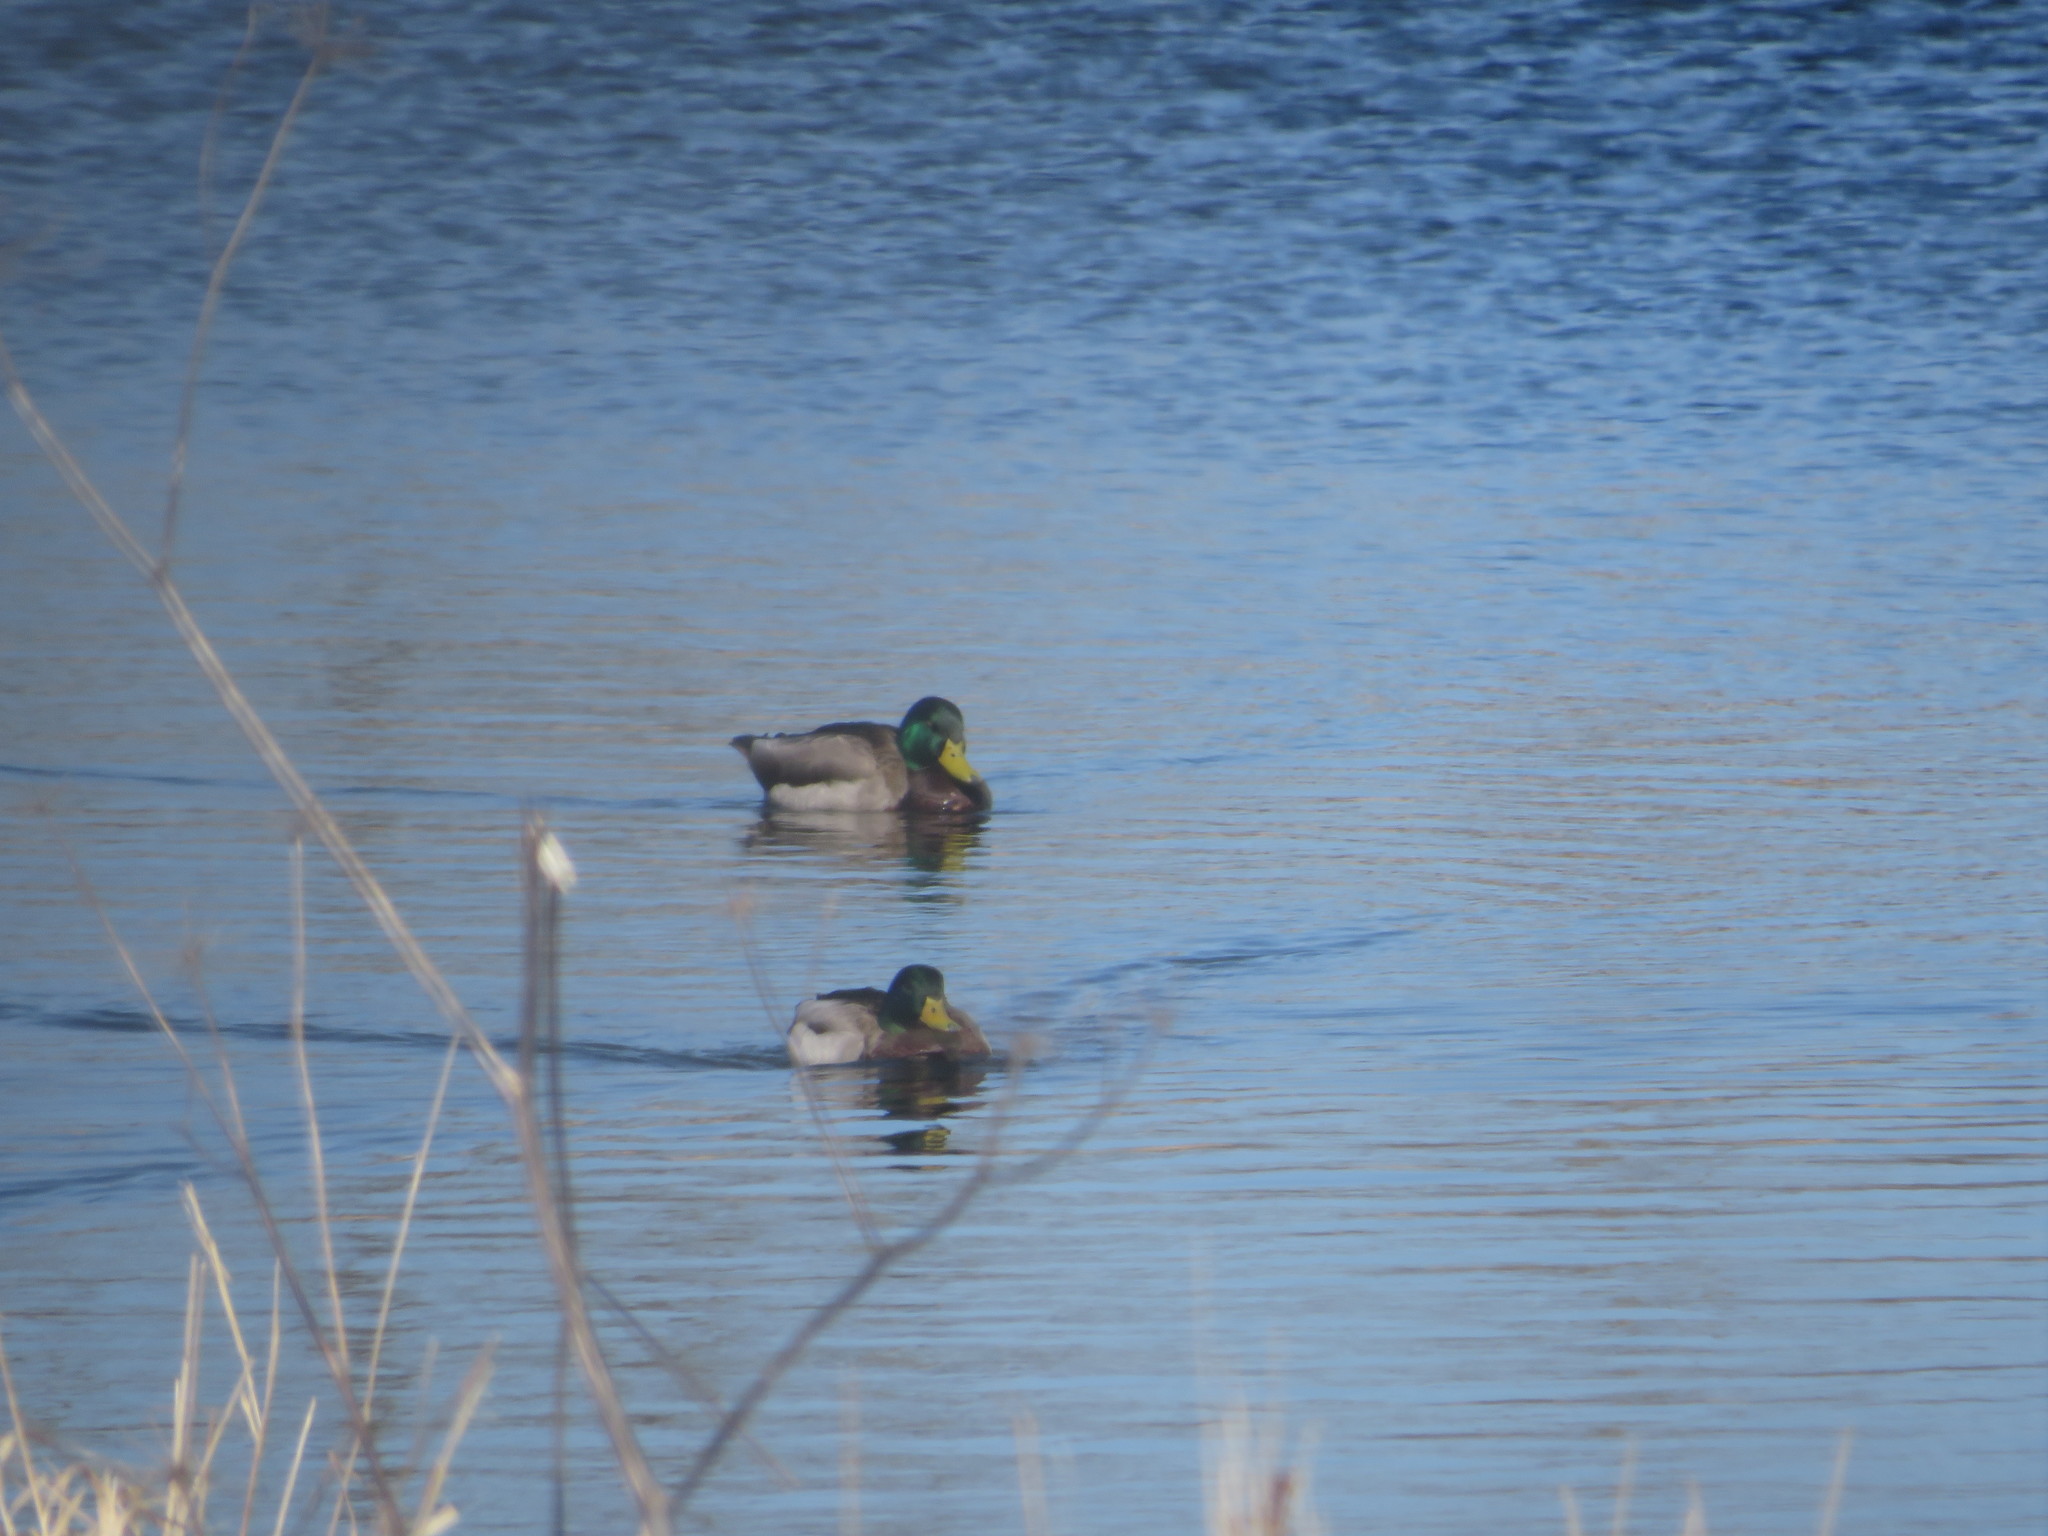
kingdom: Animalia
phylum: Chordata
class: Aves
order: Anseriformes
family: Anatidae
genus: Anas
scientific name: Anas platyrhynchos
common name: Mallard
